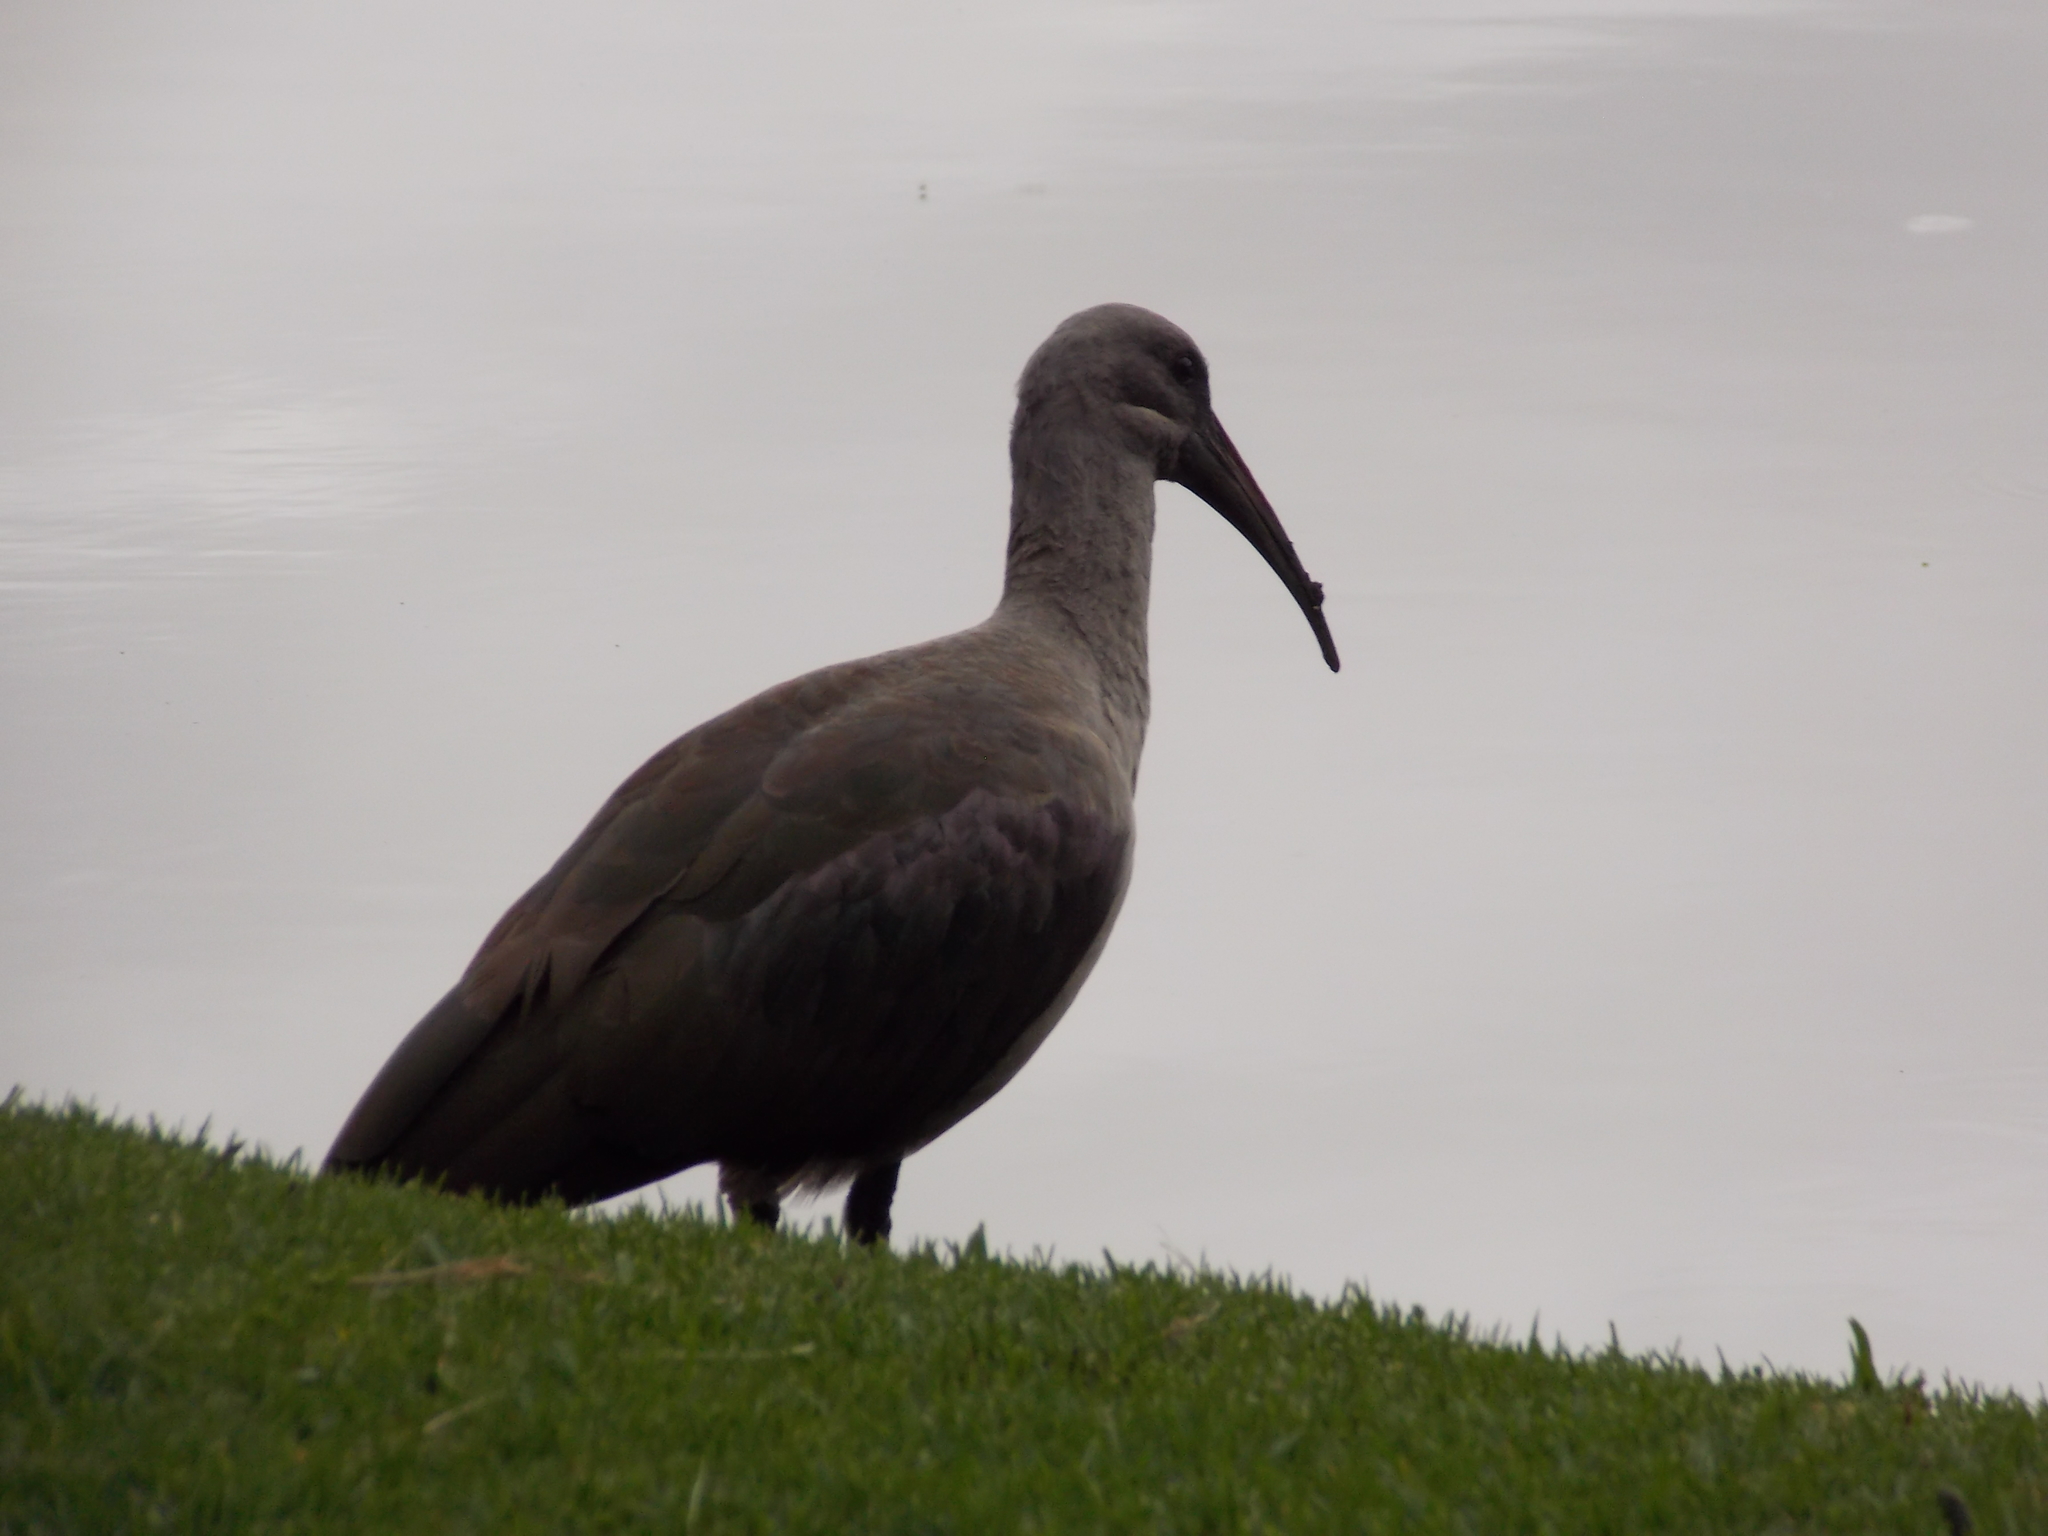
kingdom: Animalia
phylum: Chordata
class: Aves
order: Pelecaniformes
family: Threskiornithidae
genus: Bostrychia
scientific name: Bostrychia hagedash
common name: Hadada ibis
